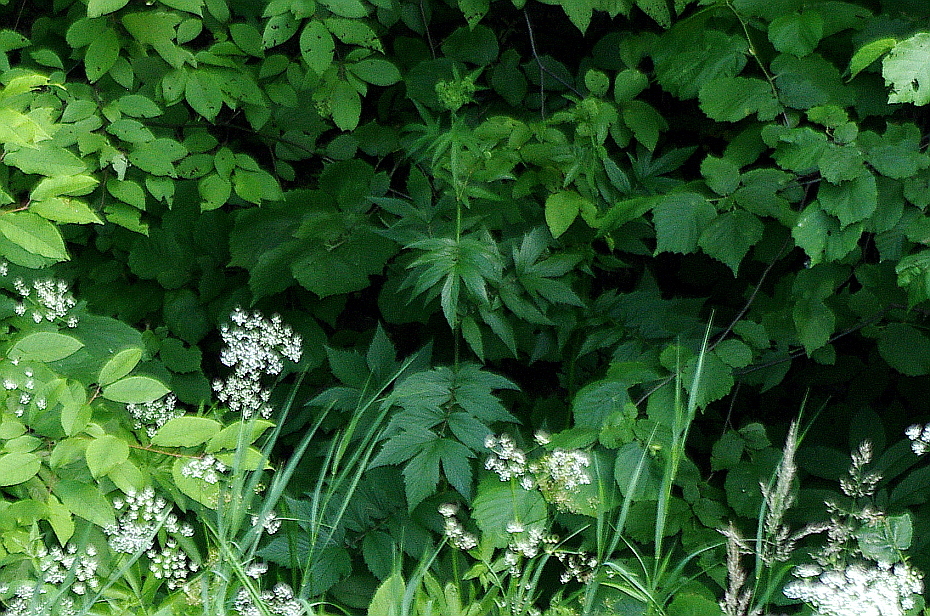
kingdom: Plantae
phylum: Tracheophyta
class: Magnoliopsida
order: Rosales
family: Rosaceae
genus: Filipendula
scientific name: Filipendula ulmaria
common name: Meadowsweet
